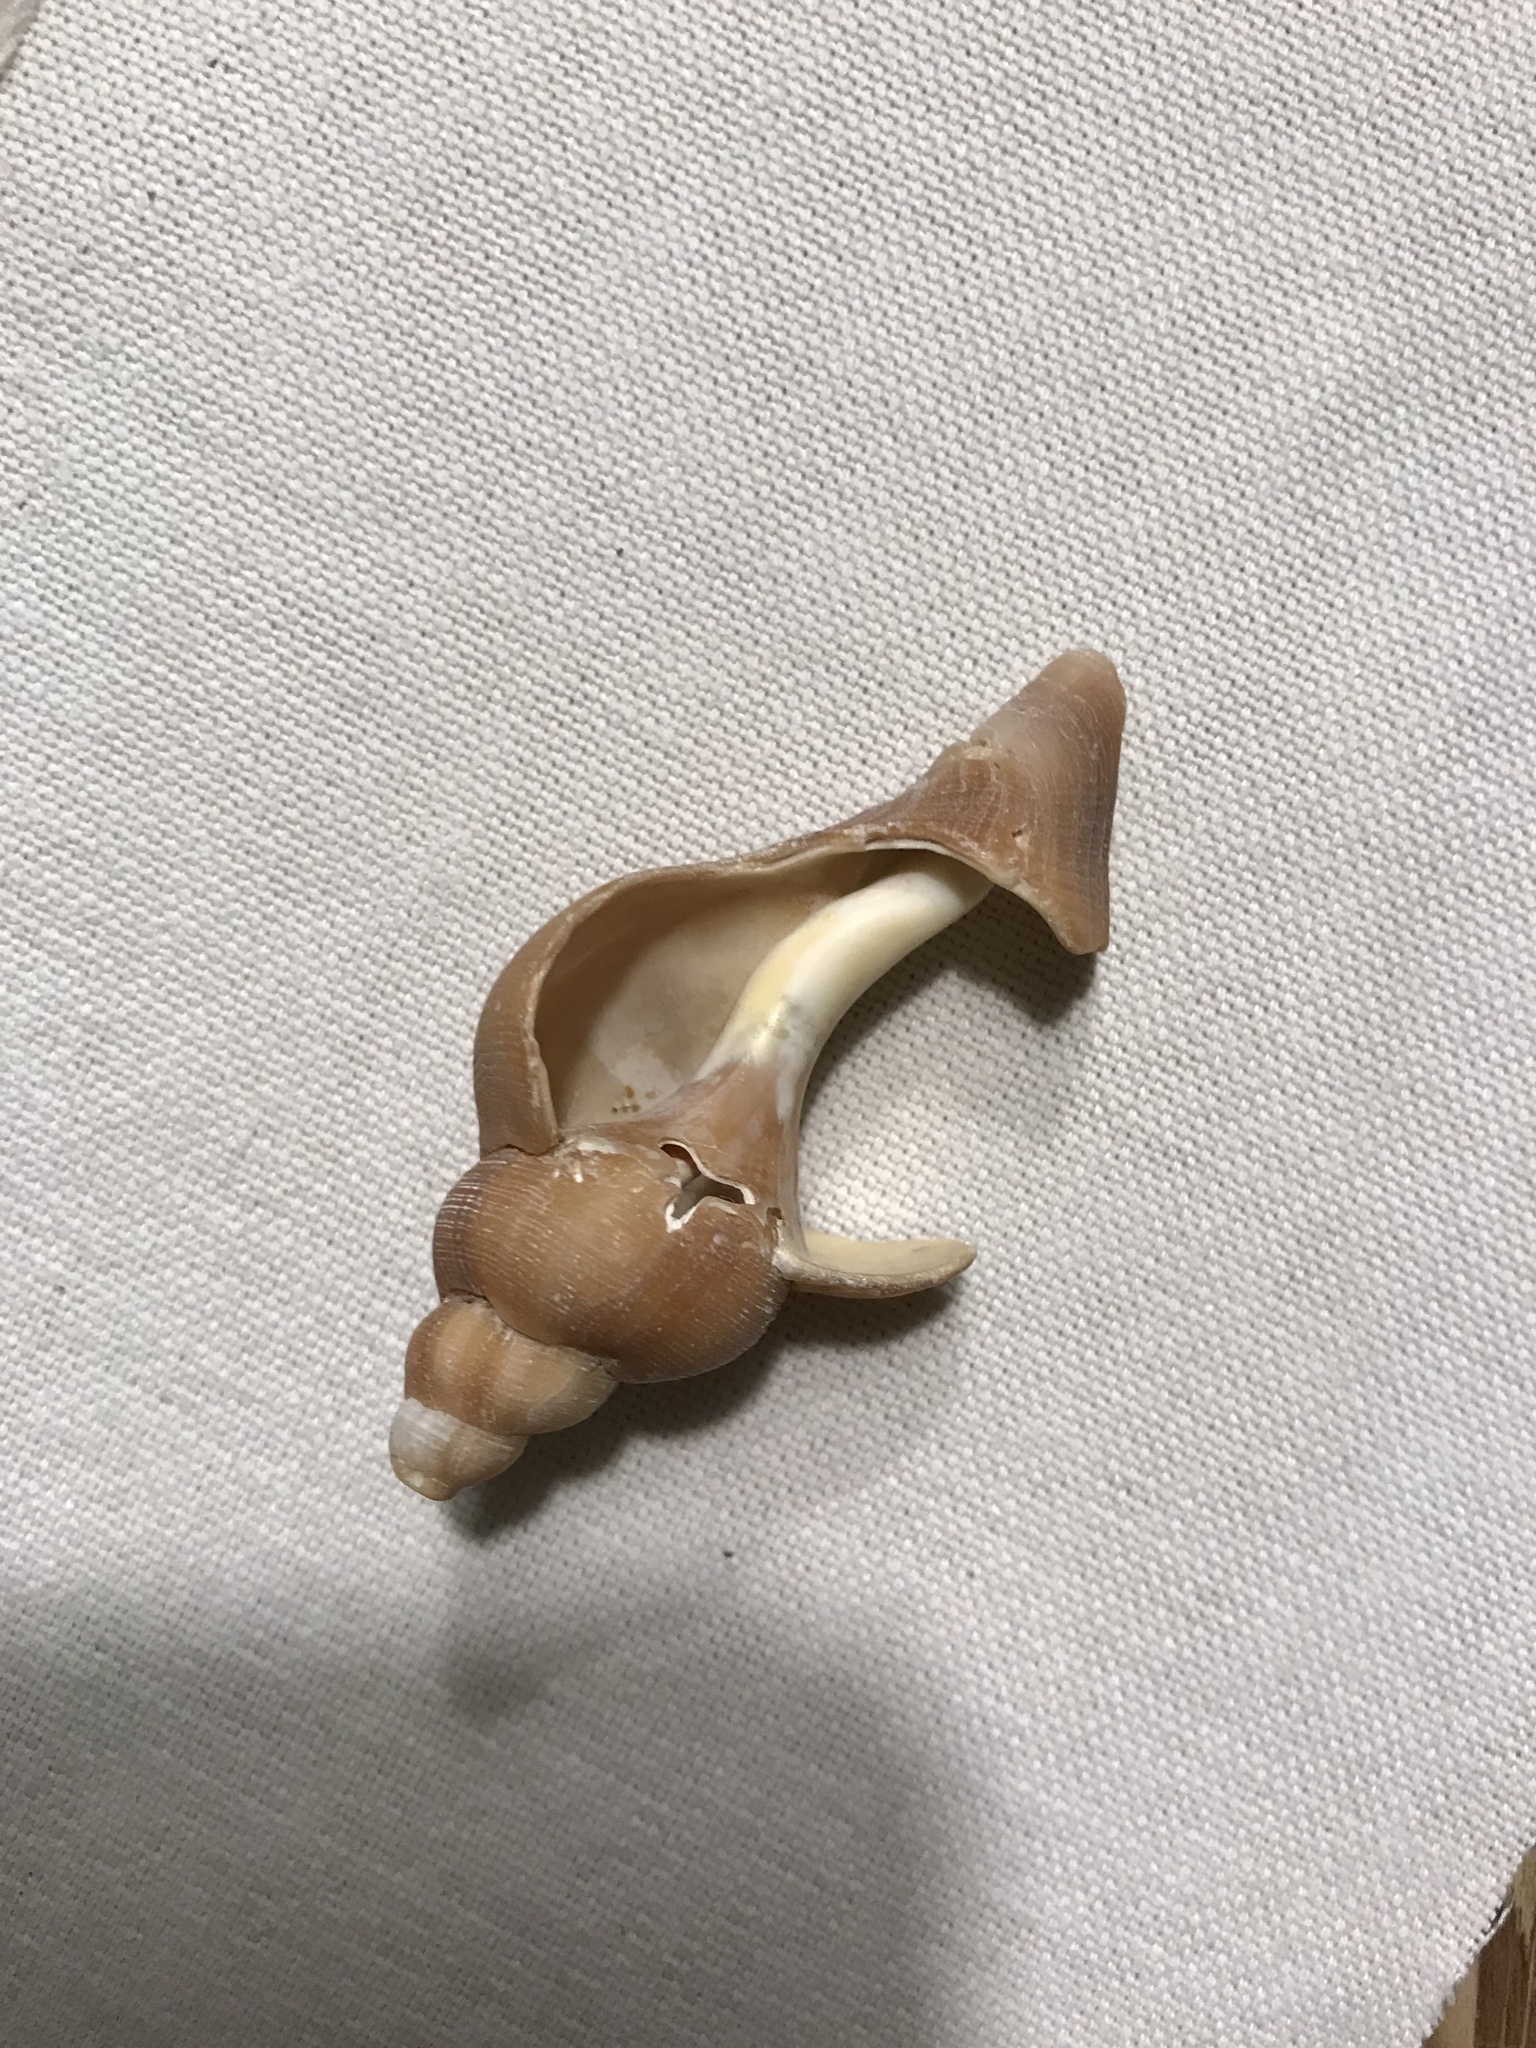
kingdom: Animalia
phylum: Mollusca
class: Gastropoda
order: Neogastropoda
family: Buccinidae
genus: Buccinum
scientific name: Buccinum undatum
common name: Common whelk
